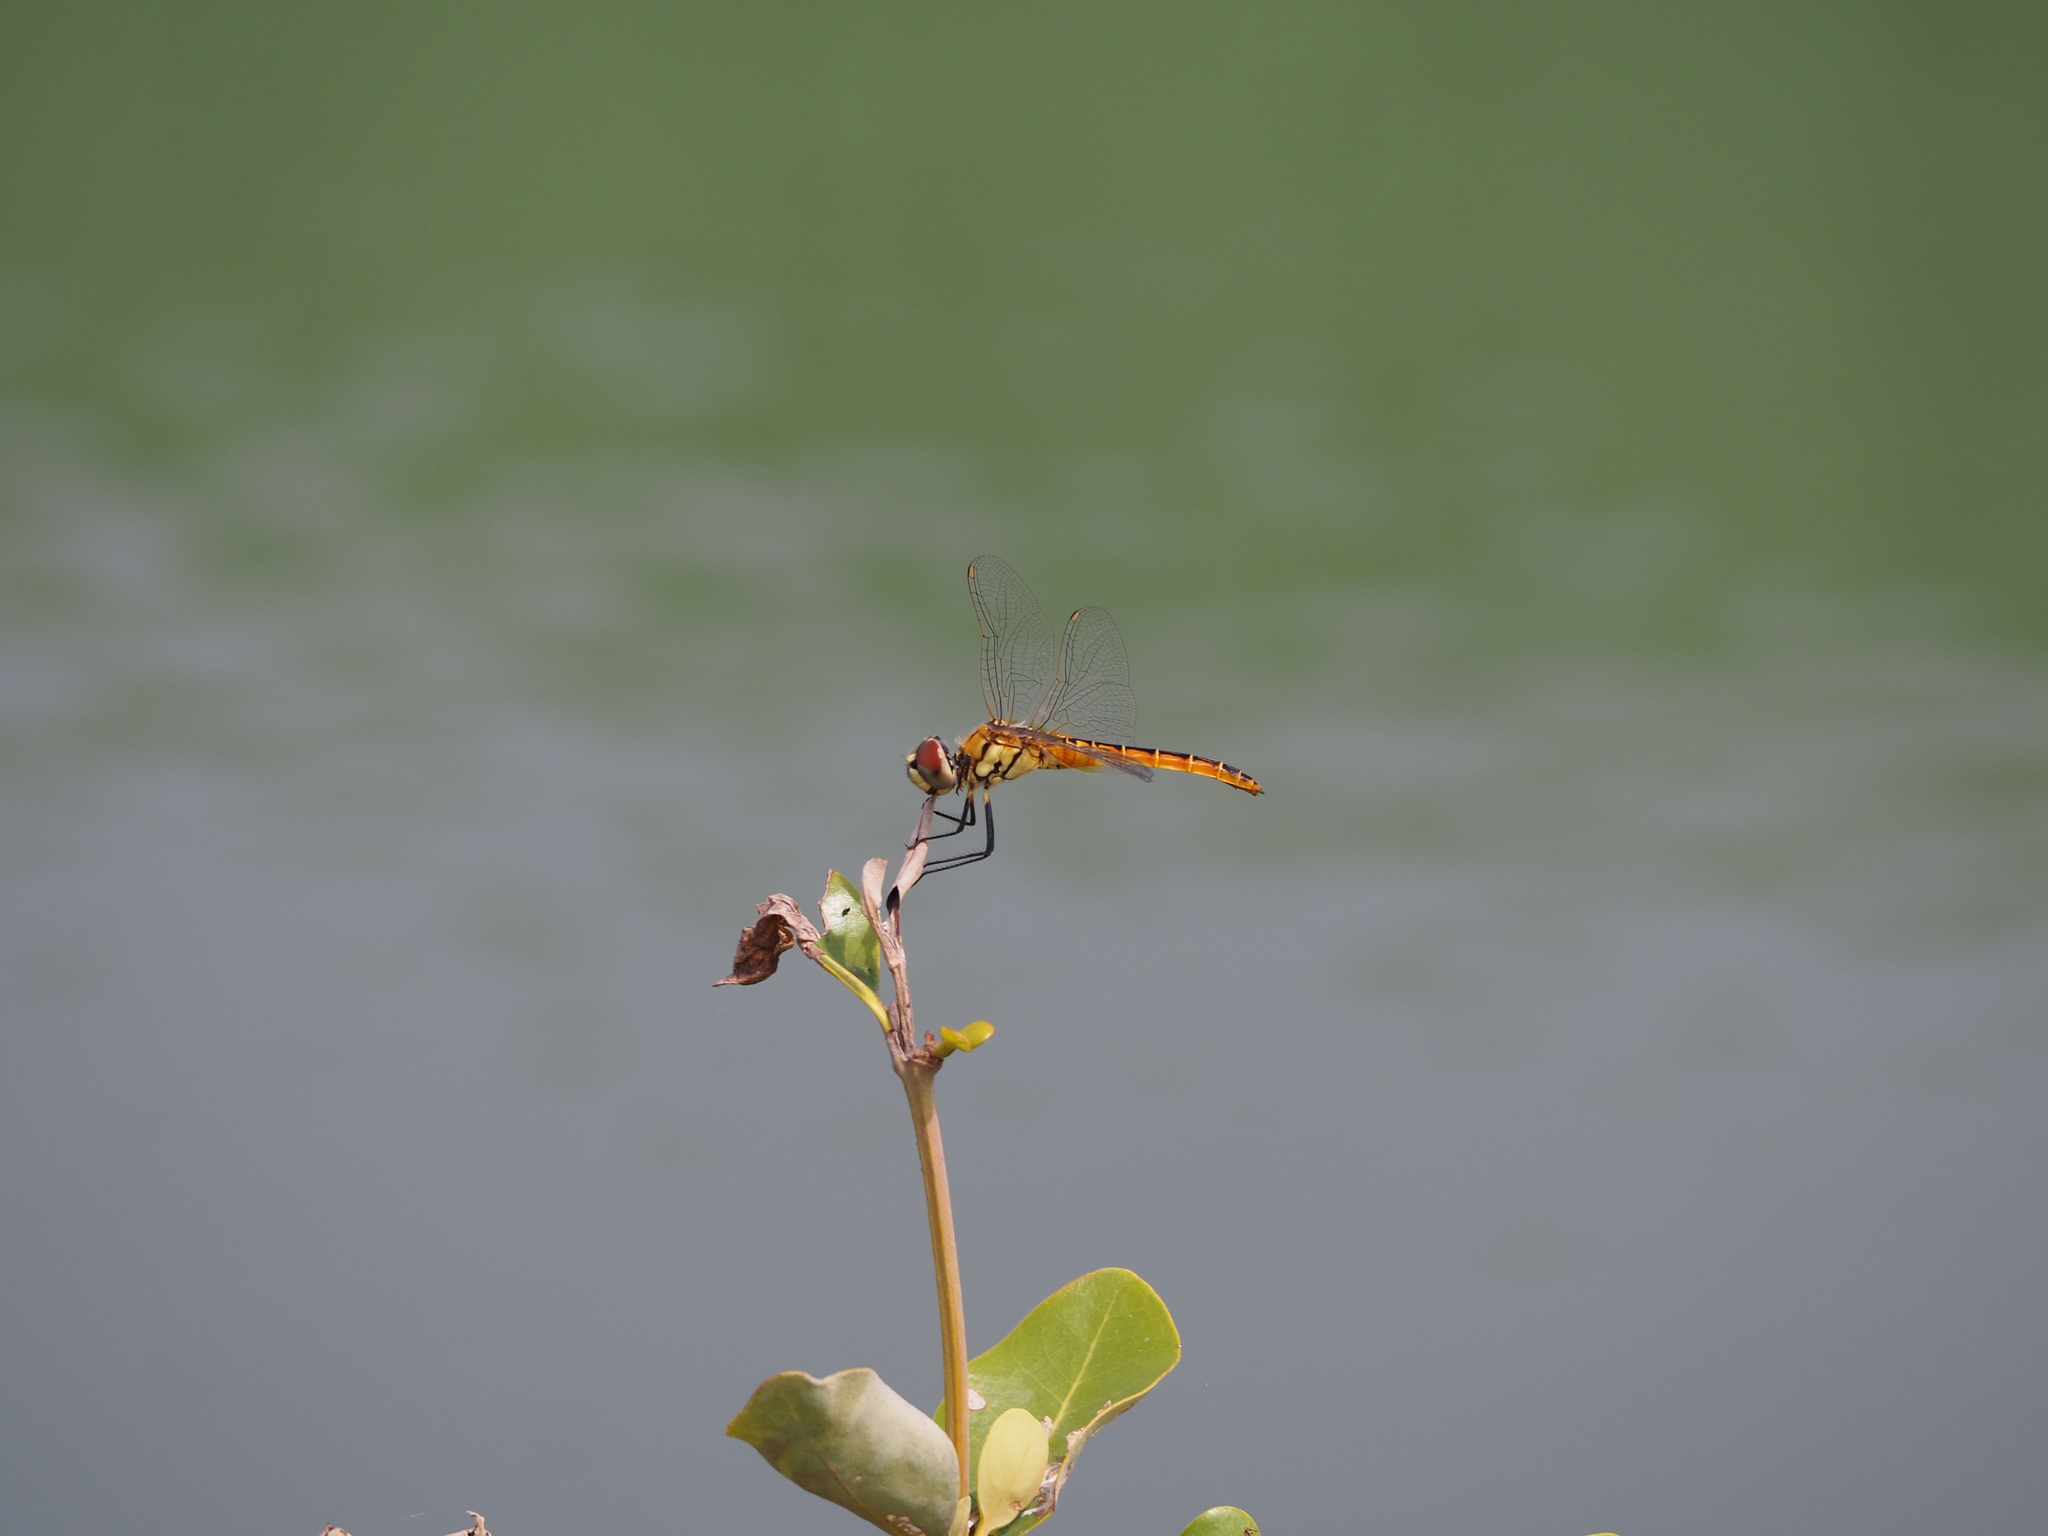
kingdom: Animalia
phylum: Arthropoda
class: Insecta
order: Odonata
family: Libellulidae
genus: Macrodiplax
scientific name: Macrodiplax cora
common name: Coastal glider
